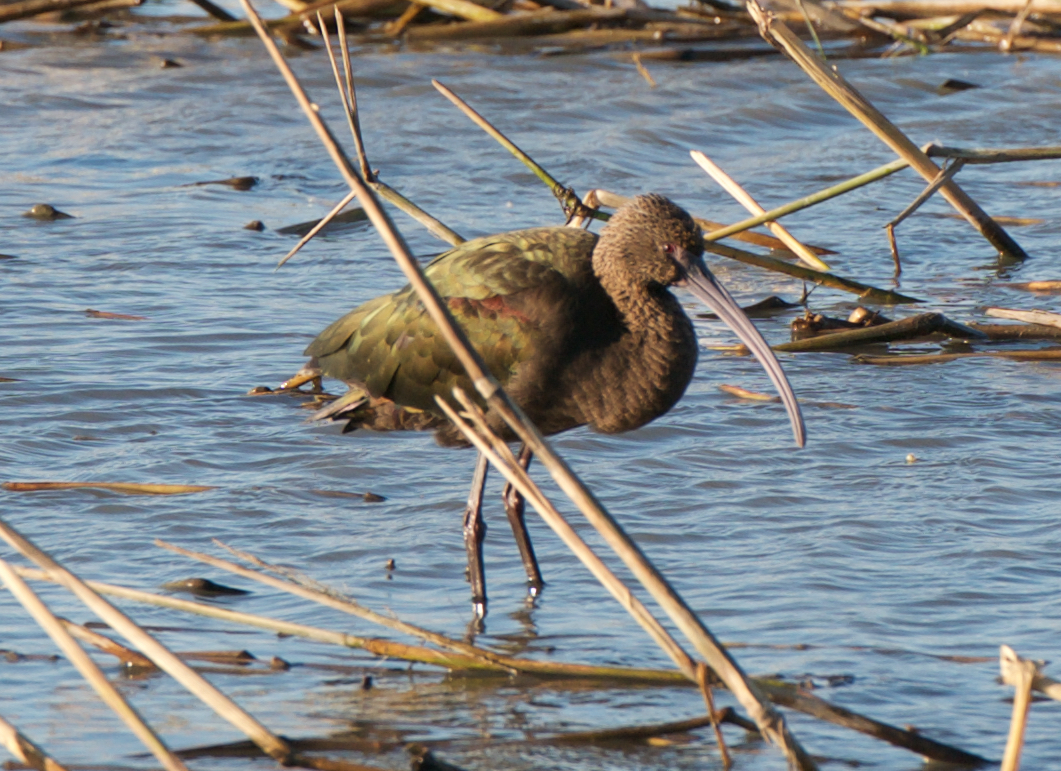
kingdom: Animalia
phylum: Chordata
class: Aves
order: Pelecaniformes
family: Threskiornithidae
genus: Plegadis
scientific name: Plegadis chihi
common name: White-faced ibis
